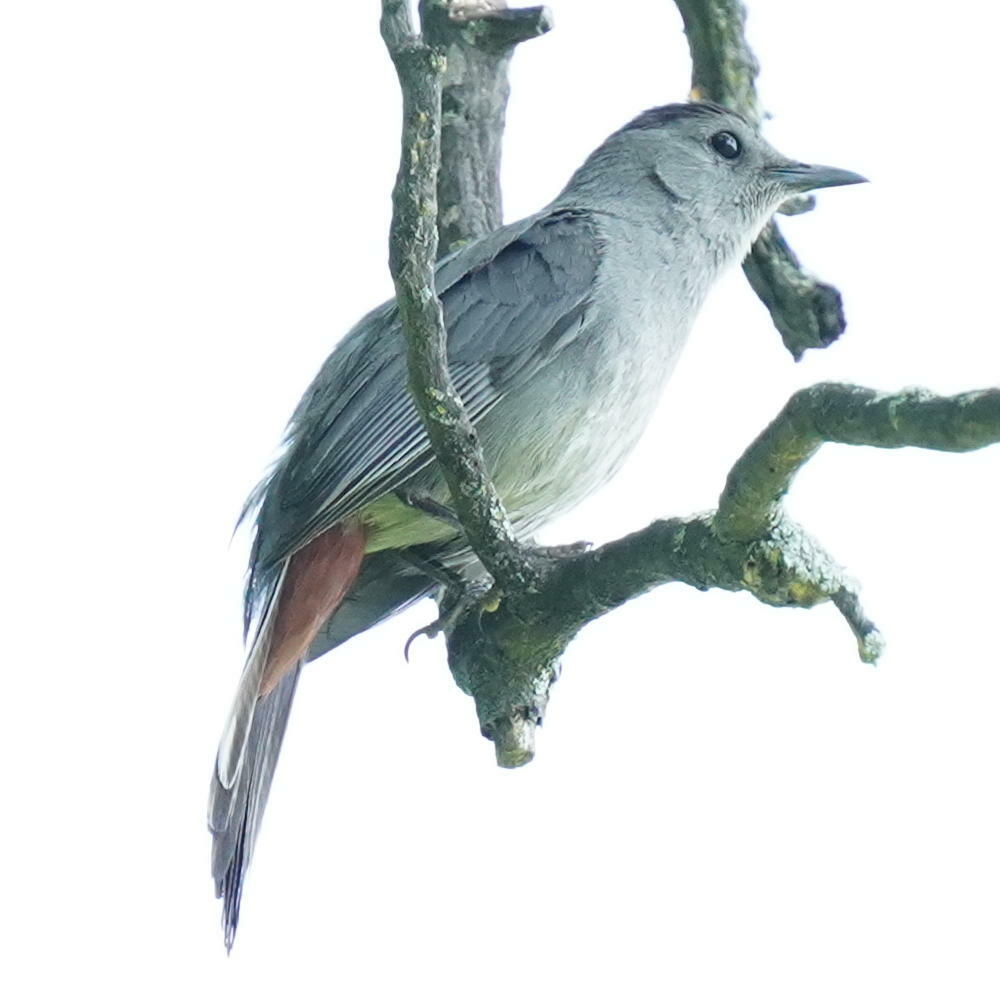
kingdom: Animalia
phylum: Chordata
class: Aves
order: Passeriformes
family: Mimidae
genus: Dumetella
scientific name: Dumetella carolinensis
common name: Gray catbird
